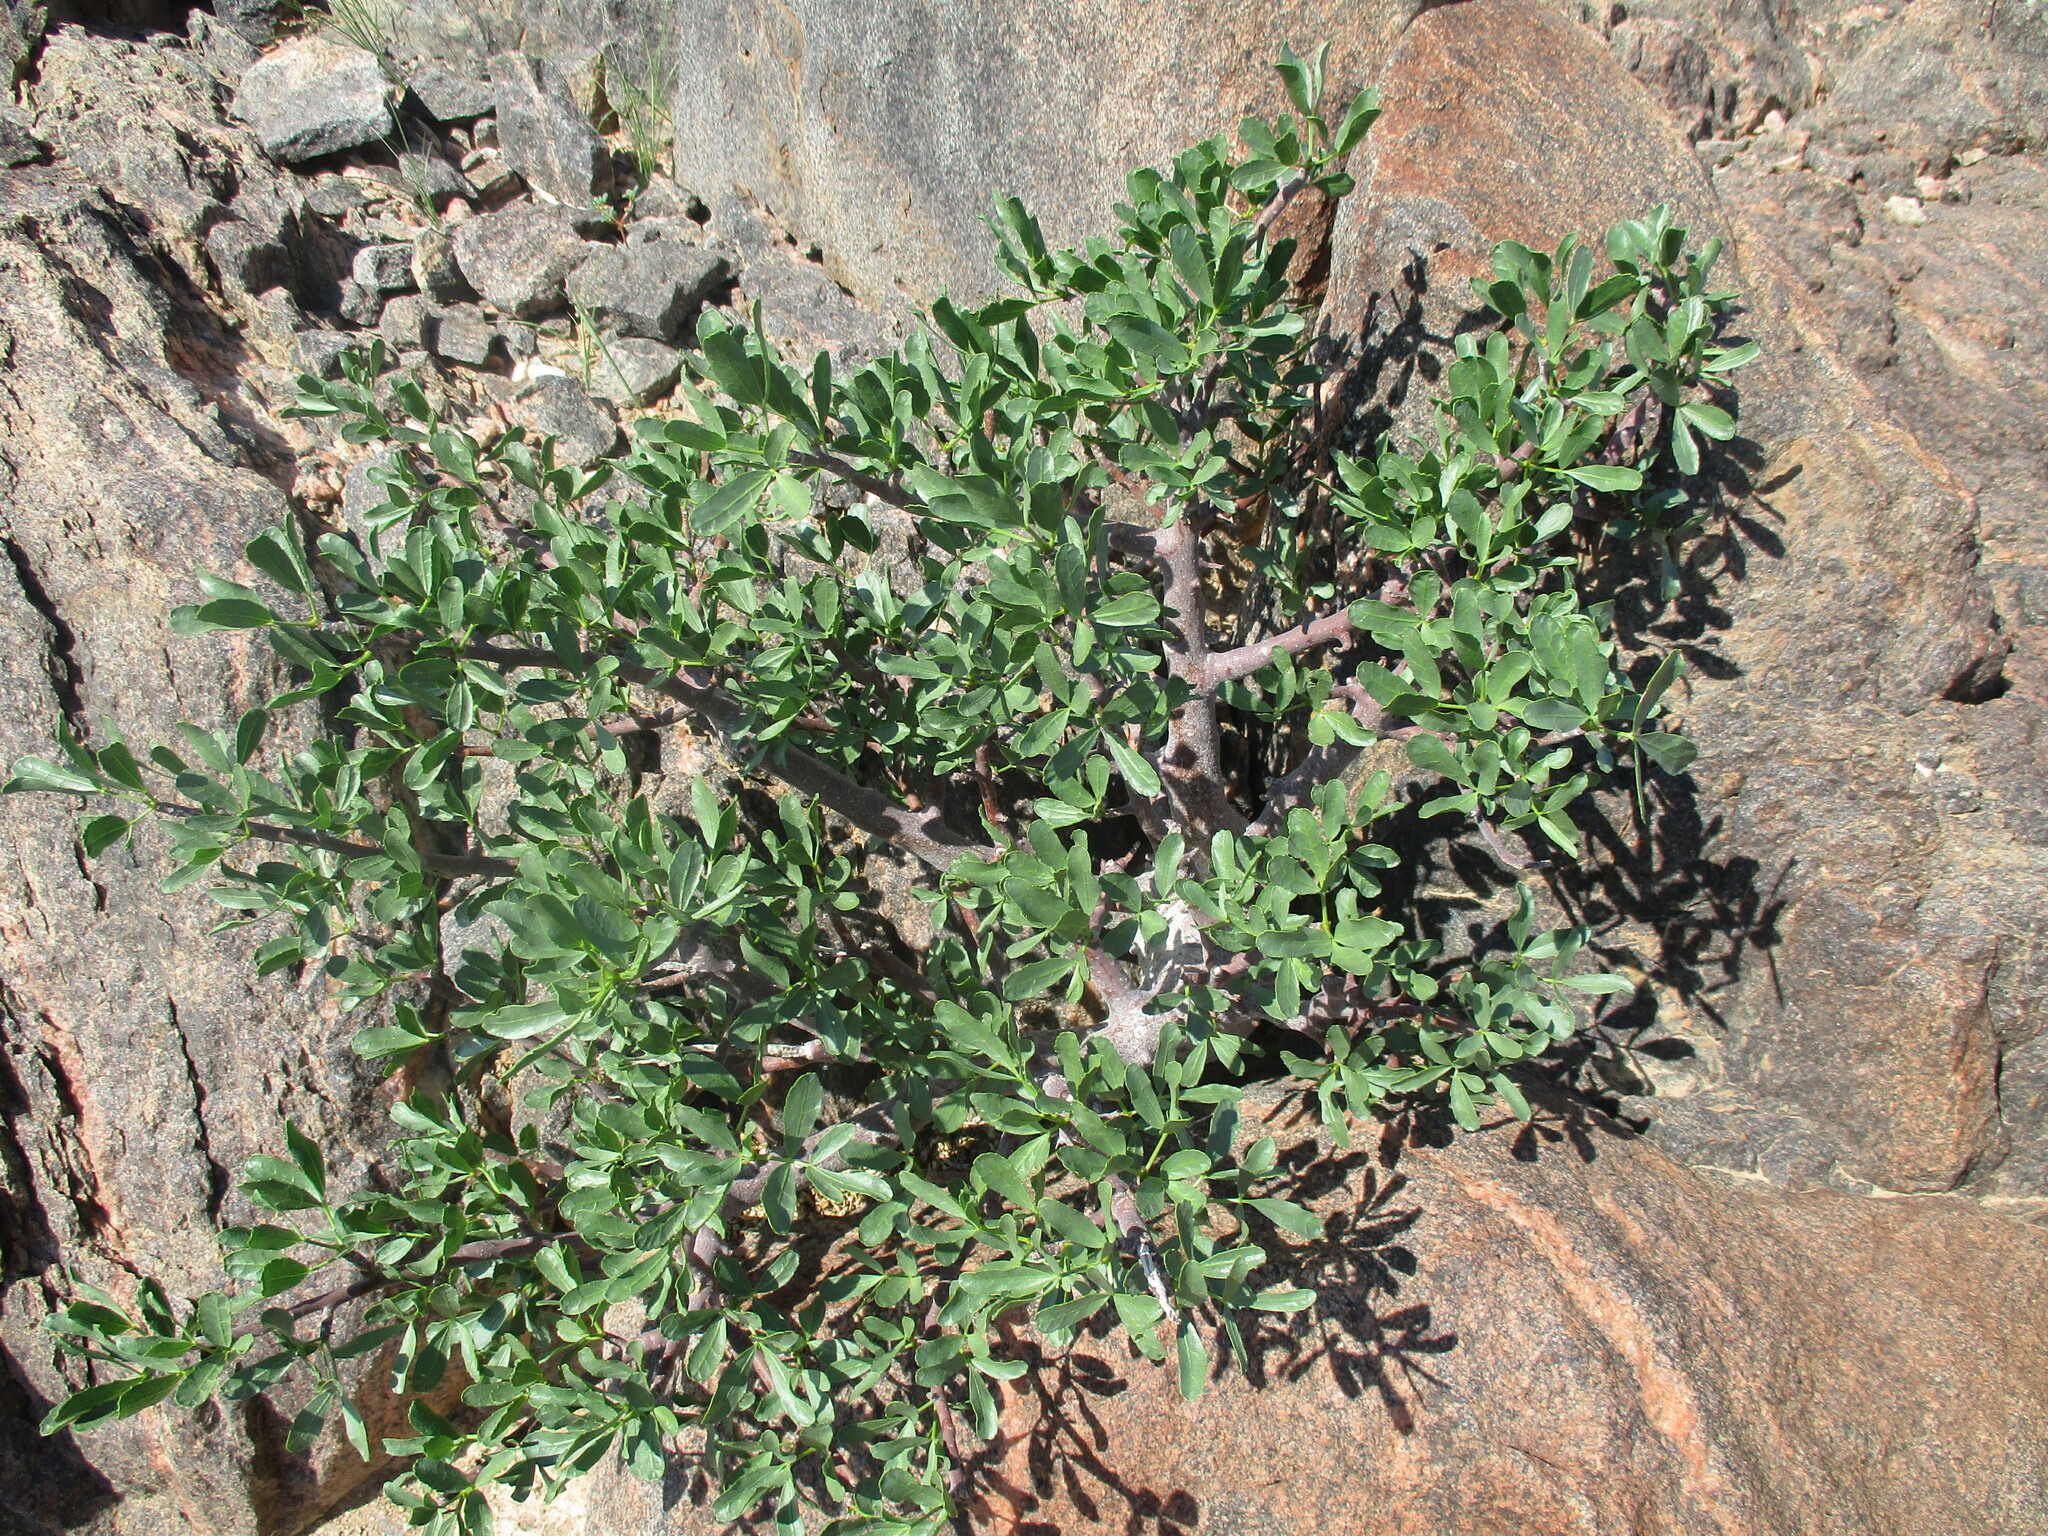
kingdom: Plantae
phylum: Tracheophyta
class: Magnoliopsida
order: Sapindales
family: Burseraceae
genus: Commiphora
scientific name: Commiphora oblanceolata
